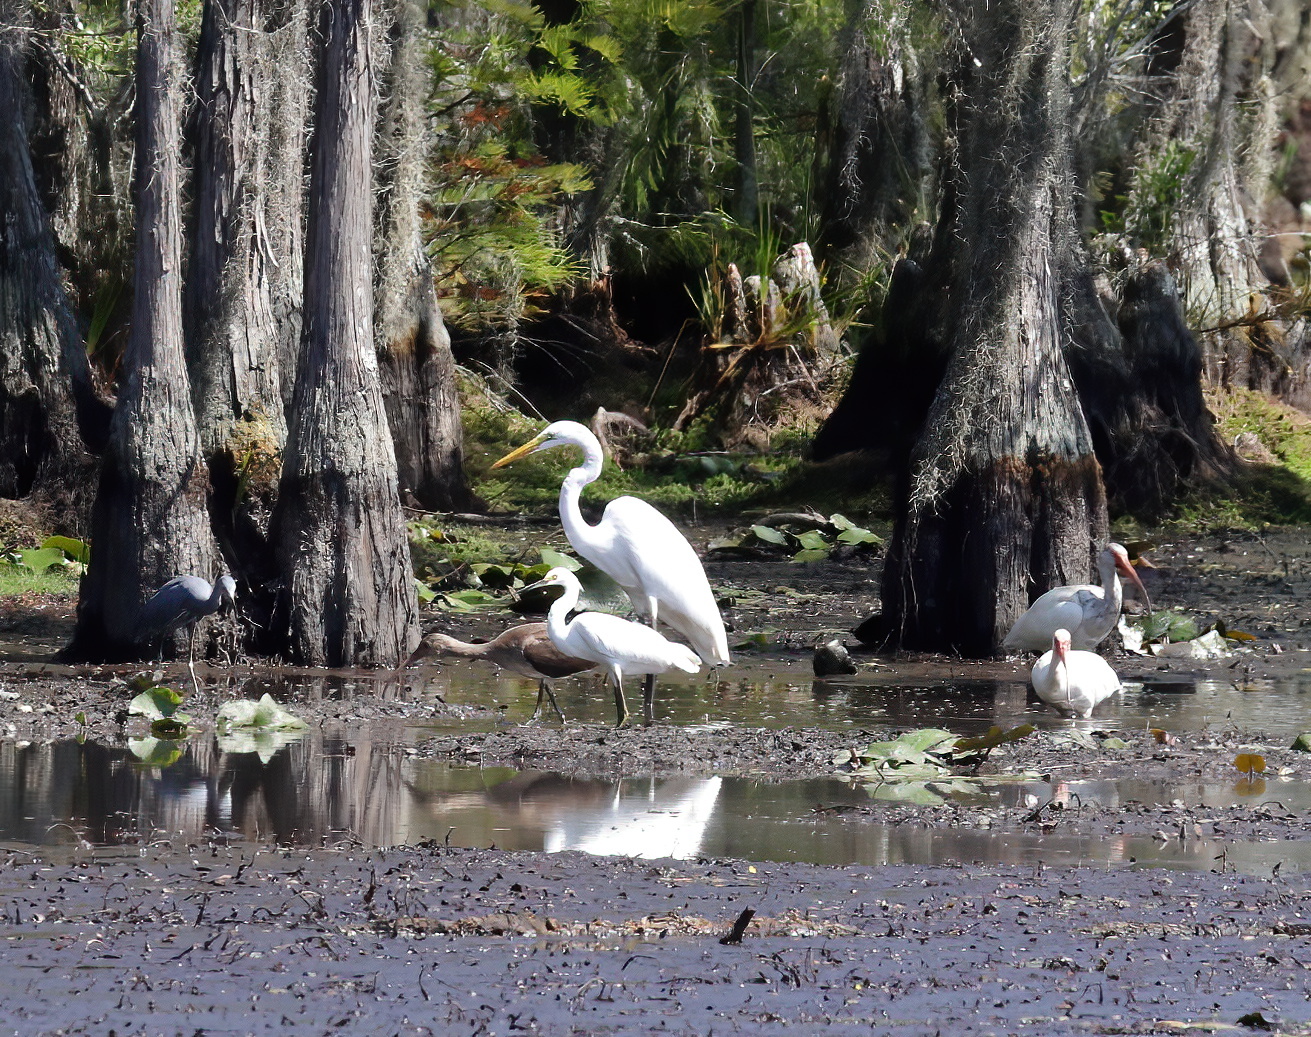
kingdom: Animalia
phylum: Chordata
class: Aves
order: Pelecaniformes
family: Ardeidae
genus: Ardea
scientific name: Ardea alba
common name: Great egret
